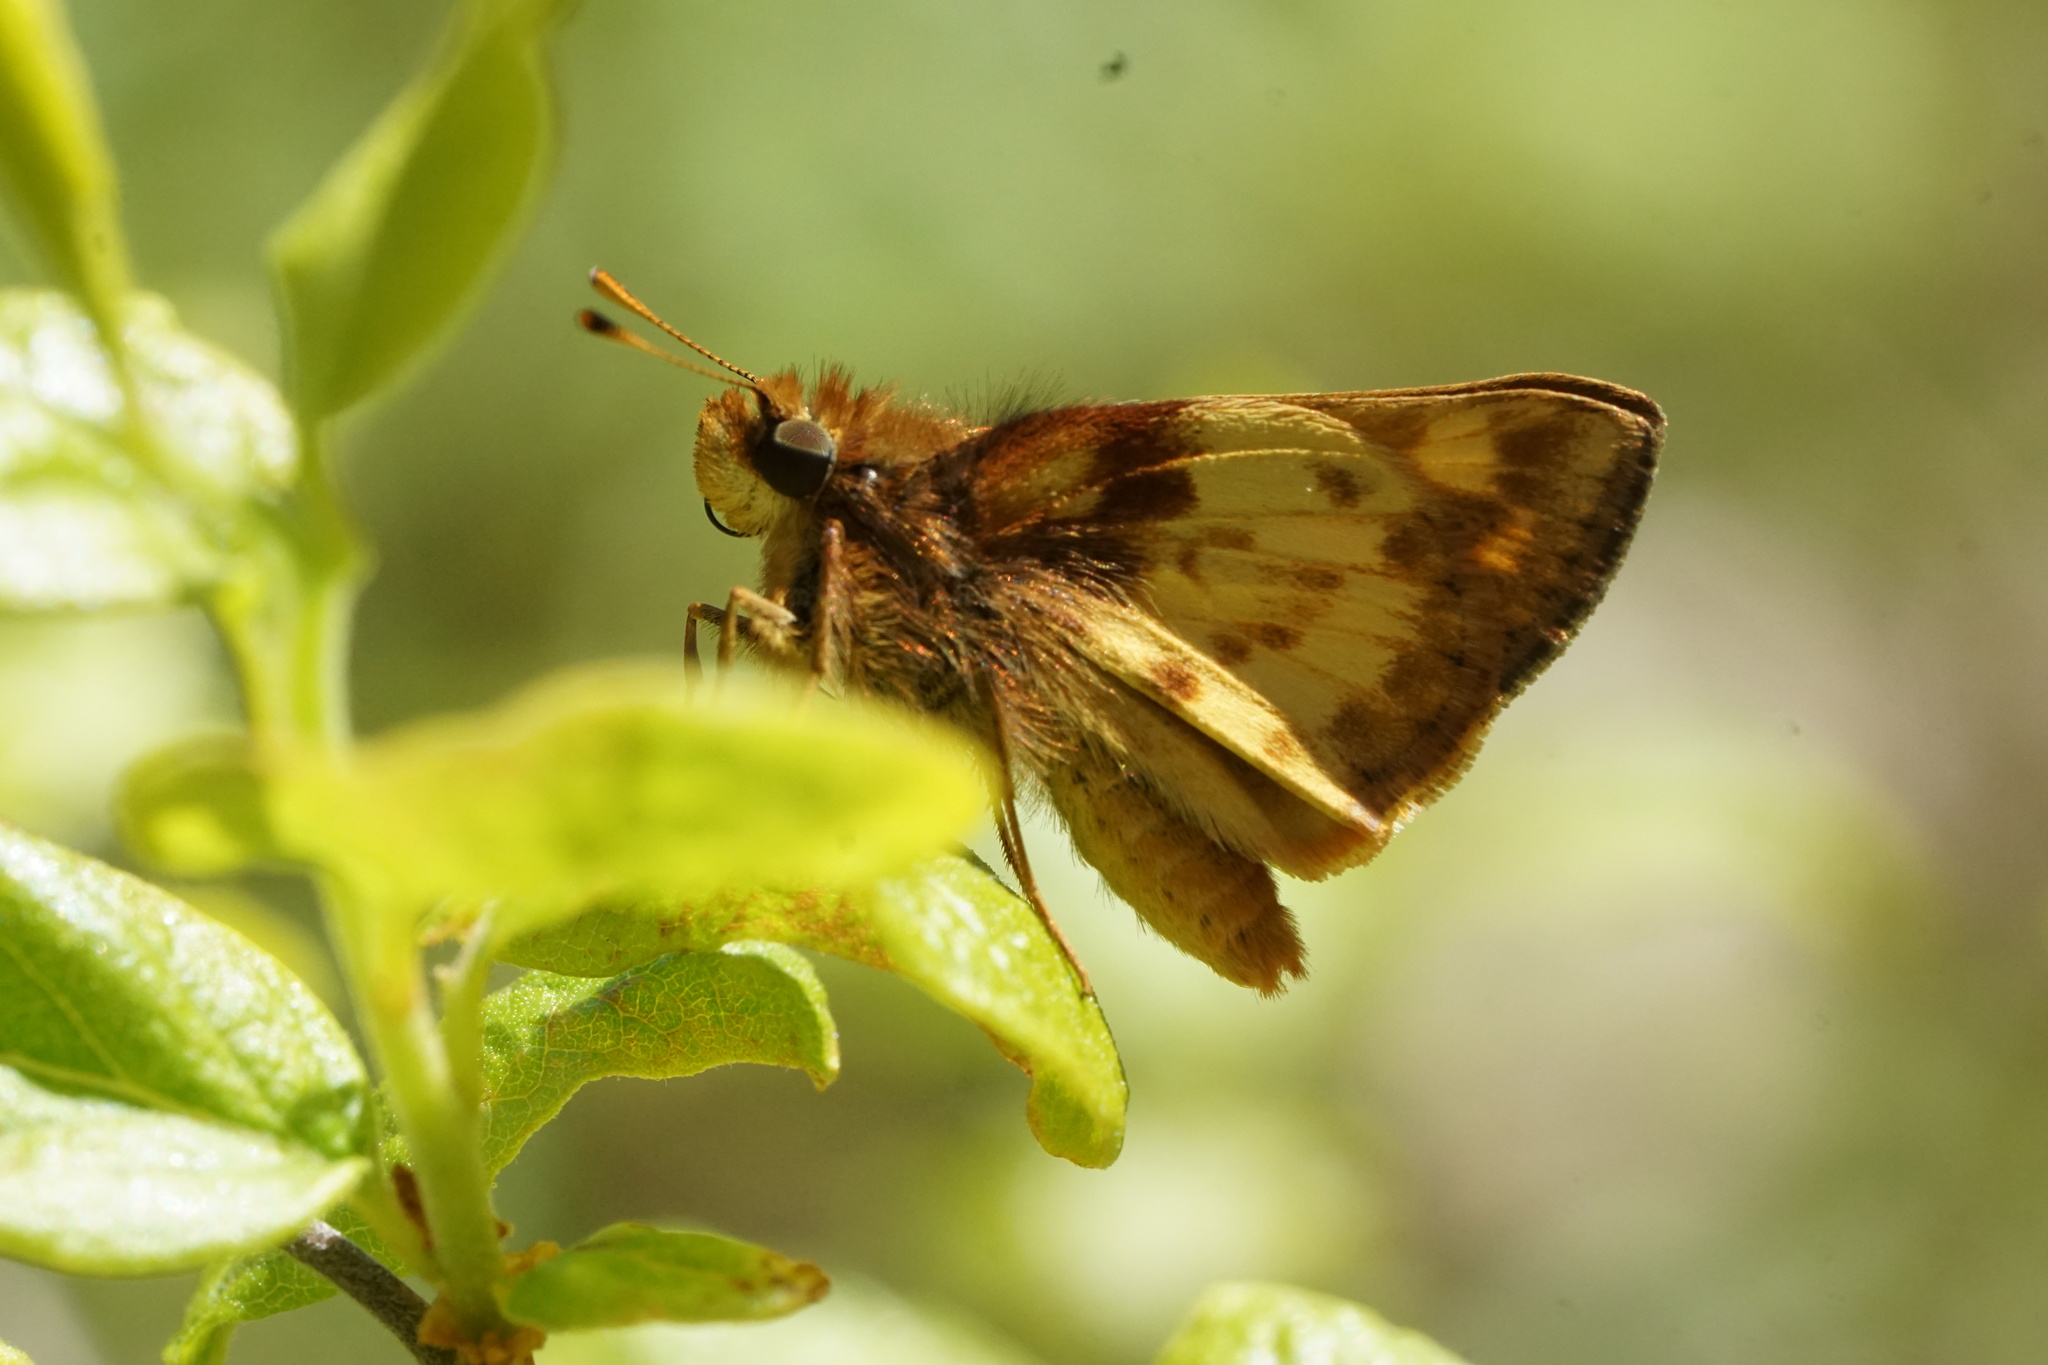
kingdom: Animalia
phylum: Arthropoda
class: Insecta
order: Lepidoptera
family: Hesperiidae
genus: Lon
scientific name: Lon zabulon
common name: Zabulon skipper
